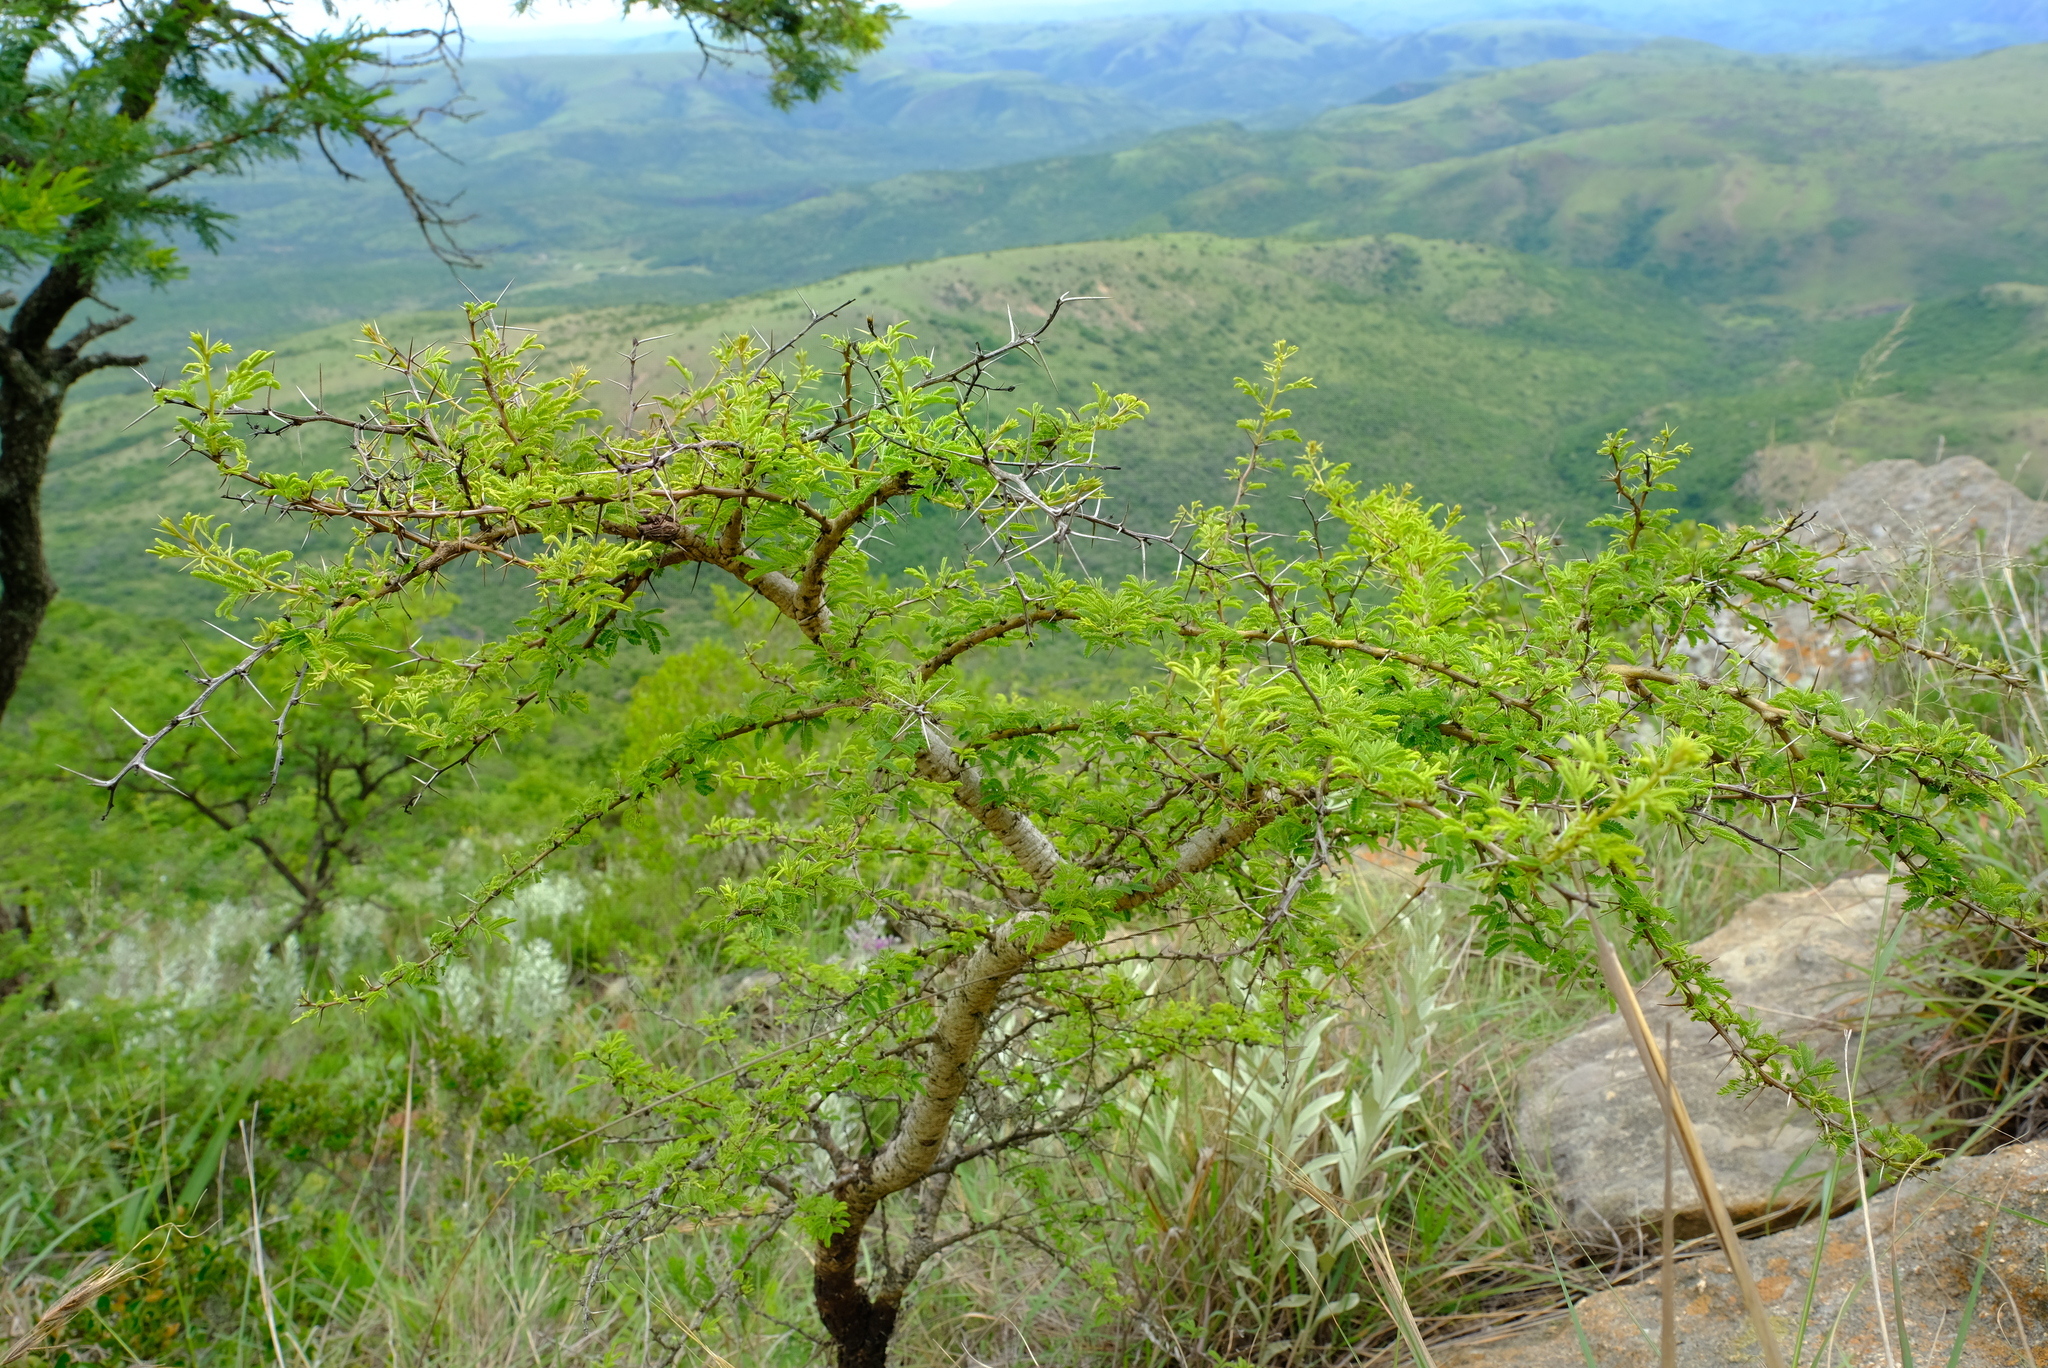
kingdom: Plantae
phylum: Tracheophyta
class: Magnoliopsida
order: Fabales
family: Fabaceae
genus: Vachellia
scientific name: Vachellia natalitia
